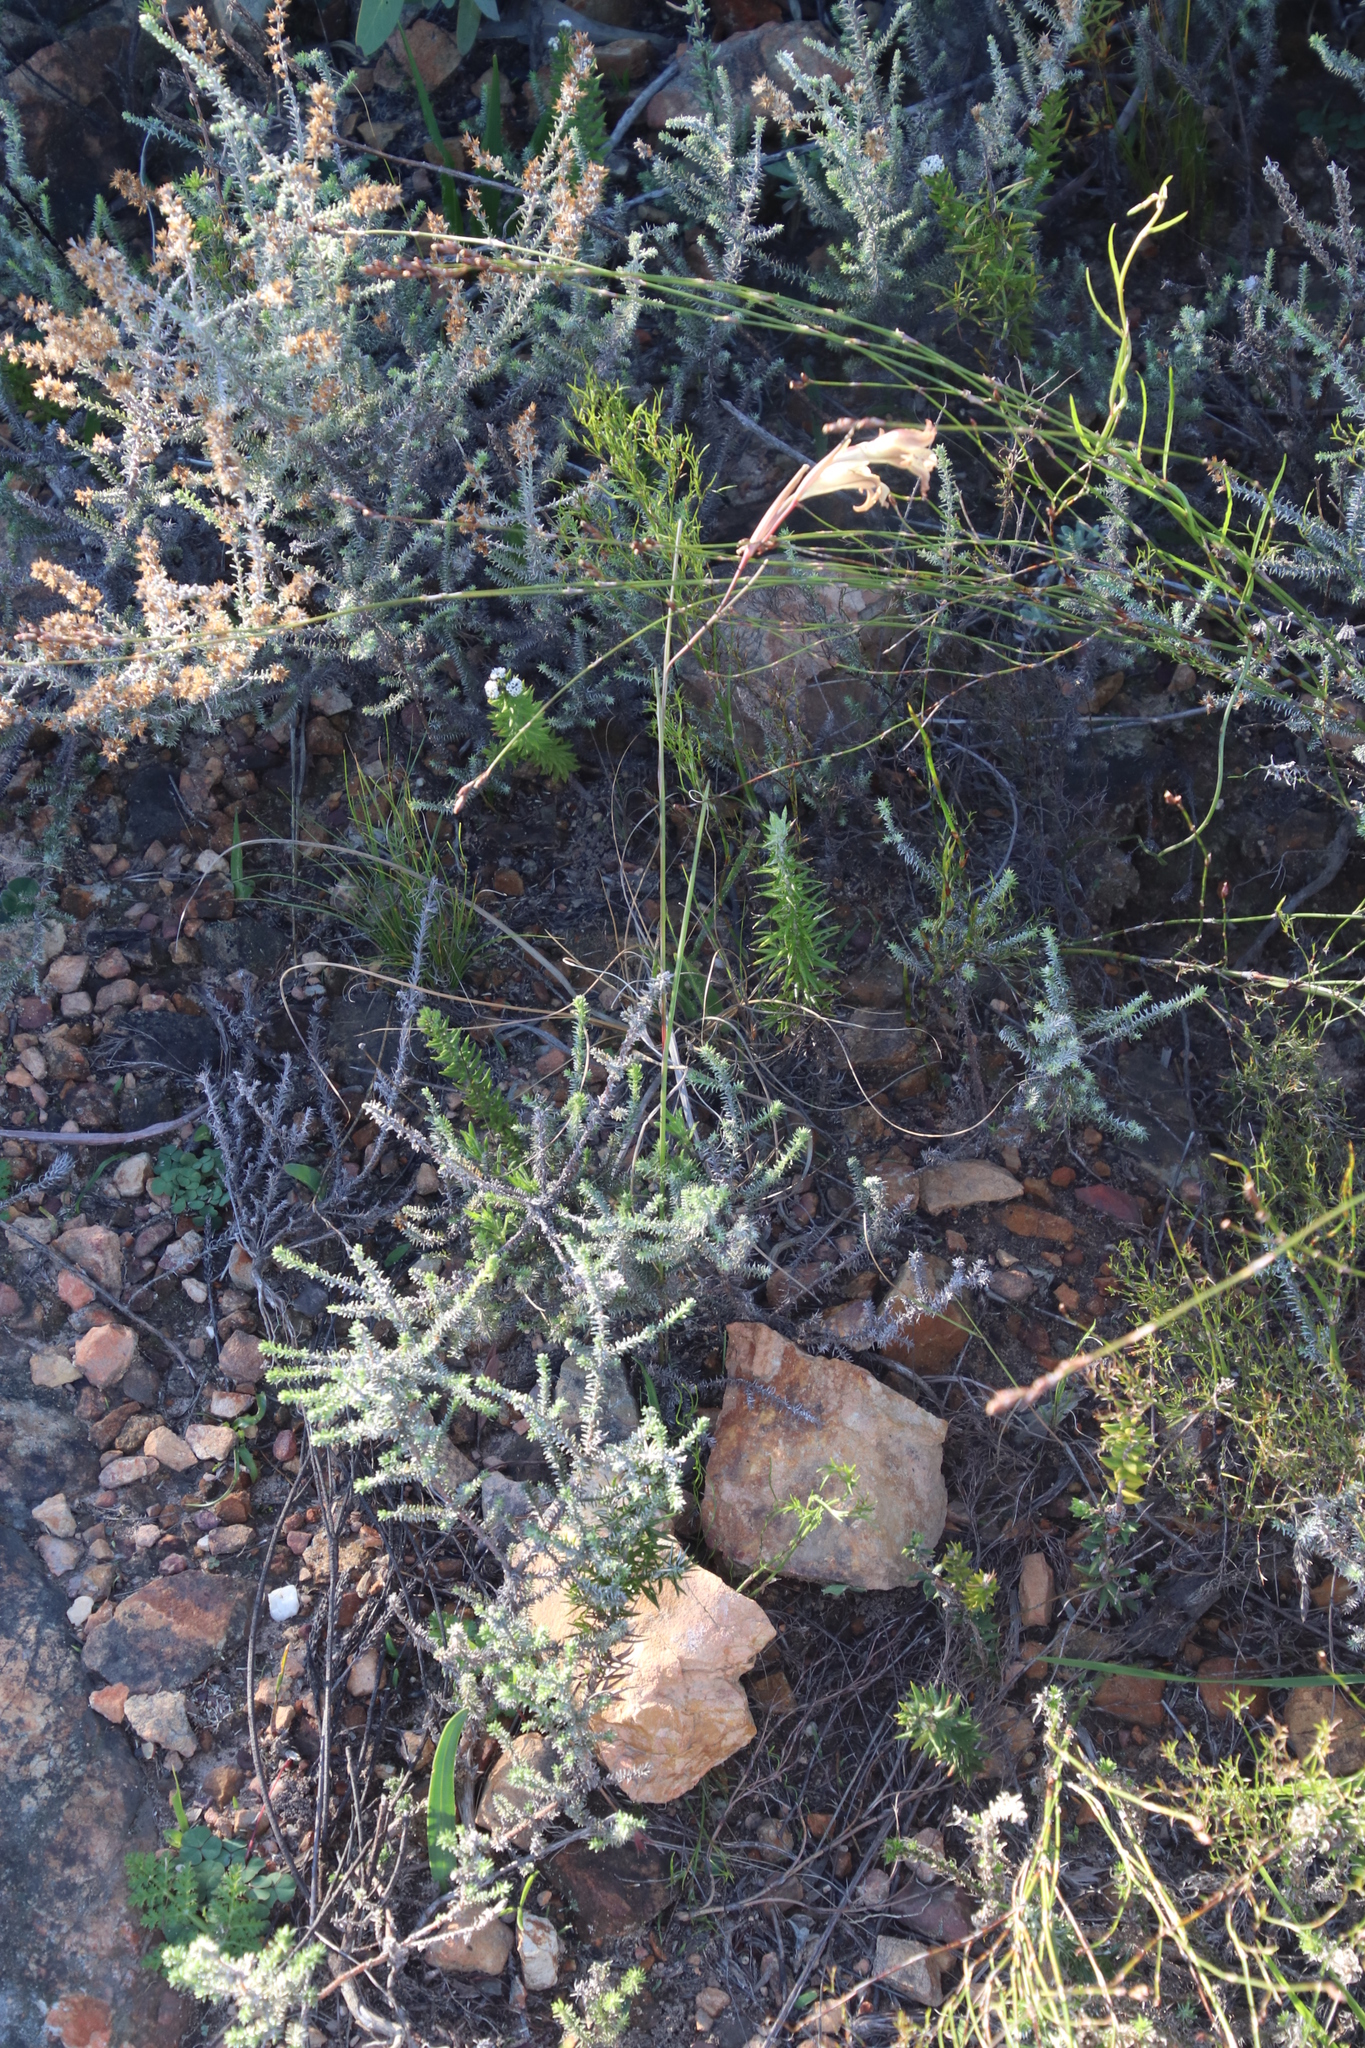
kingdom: Plantae
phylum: Tracheophyta
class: Liliopsida
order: Asparagales
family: Iridaceae
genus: Gladiolus
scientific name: Gladiolus hyalinus
